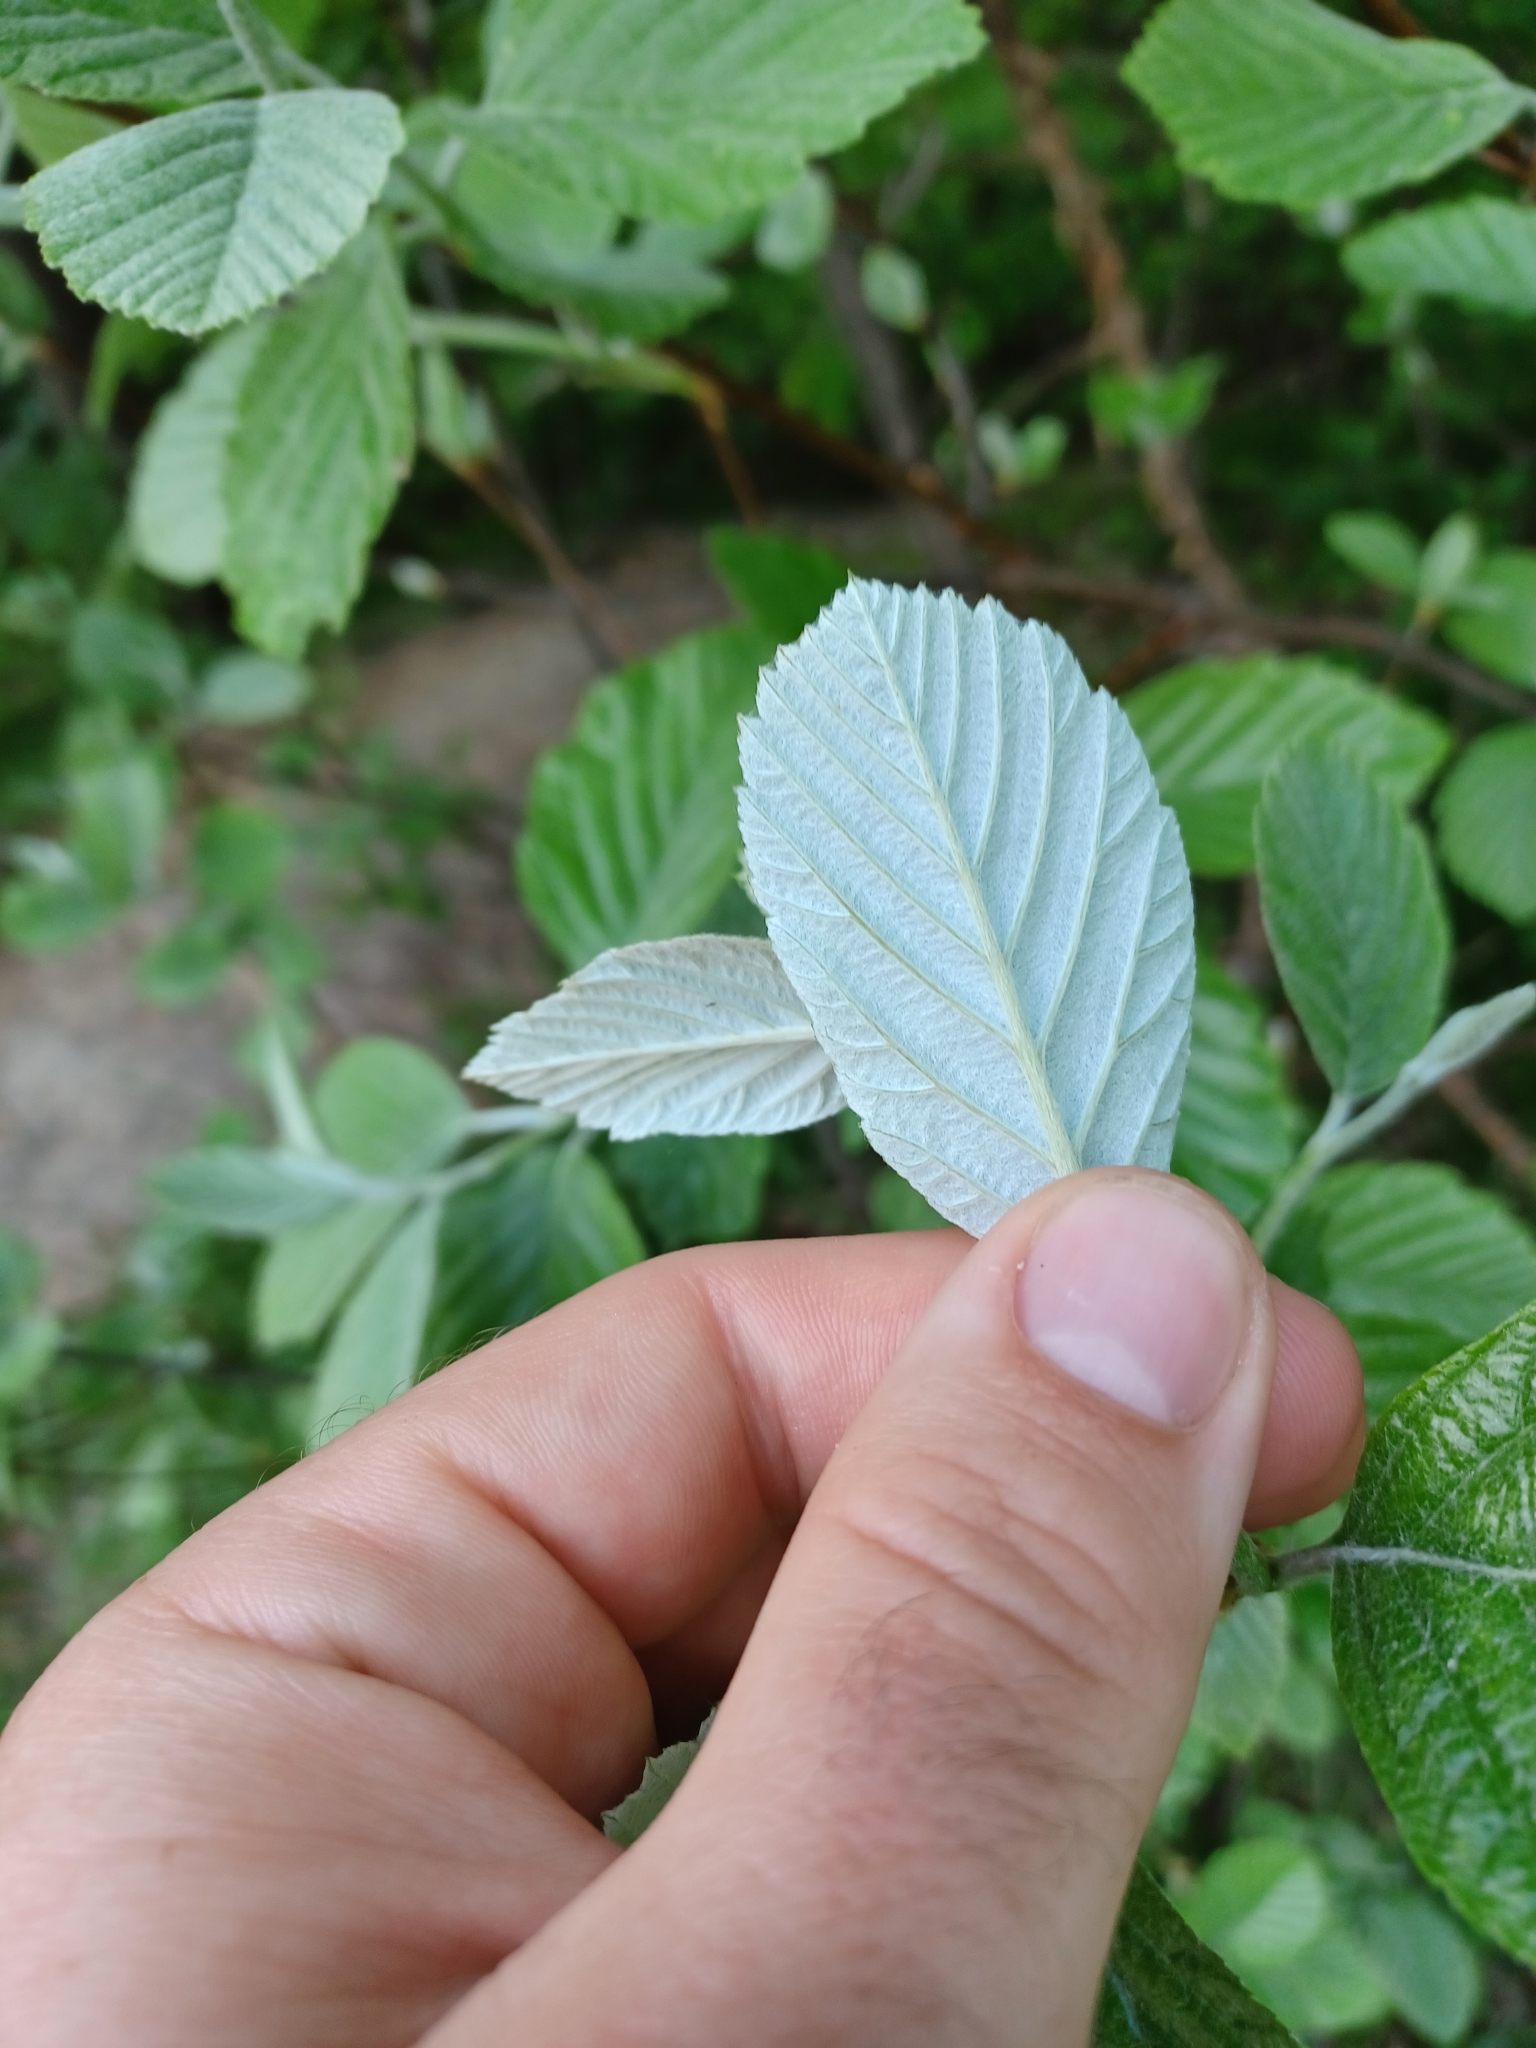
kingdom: Plantae
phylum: Tracheophyta
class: Magnoliopsida
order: Rosales
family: Rosaceae
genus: Aria
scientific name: Aria edulis
